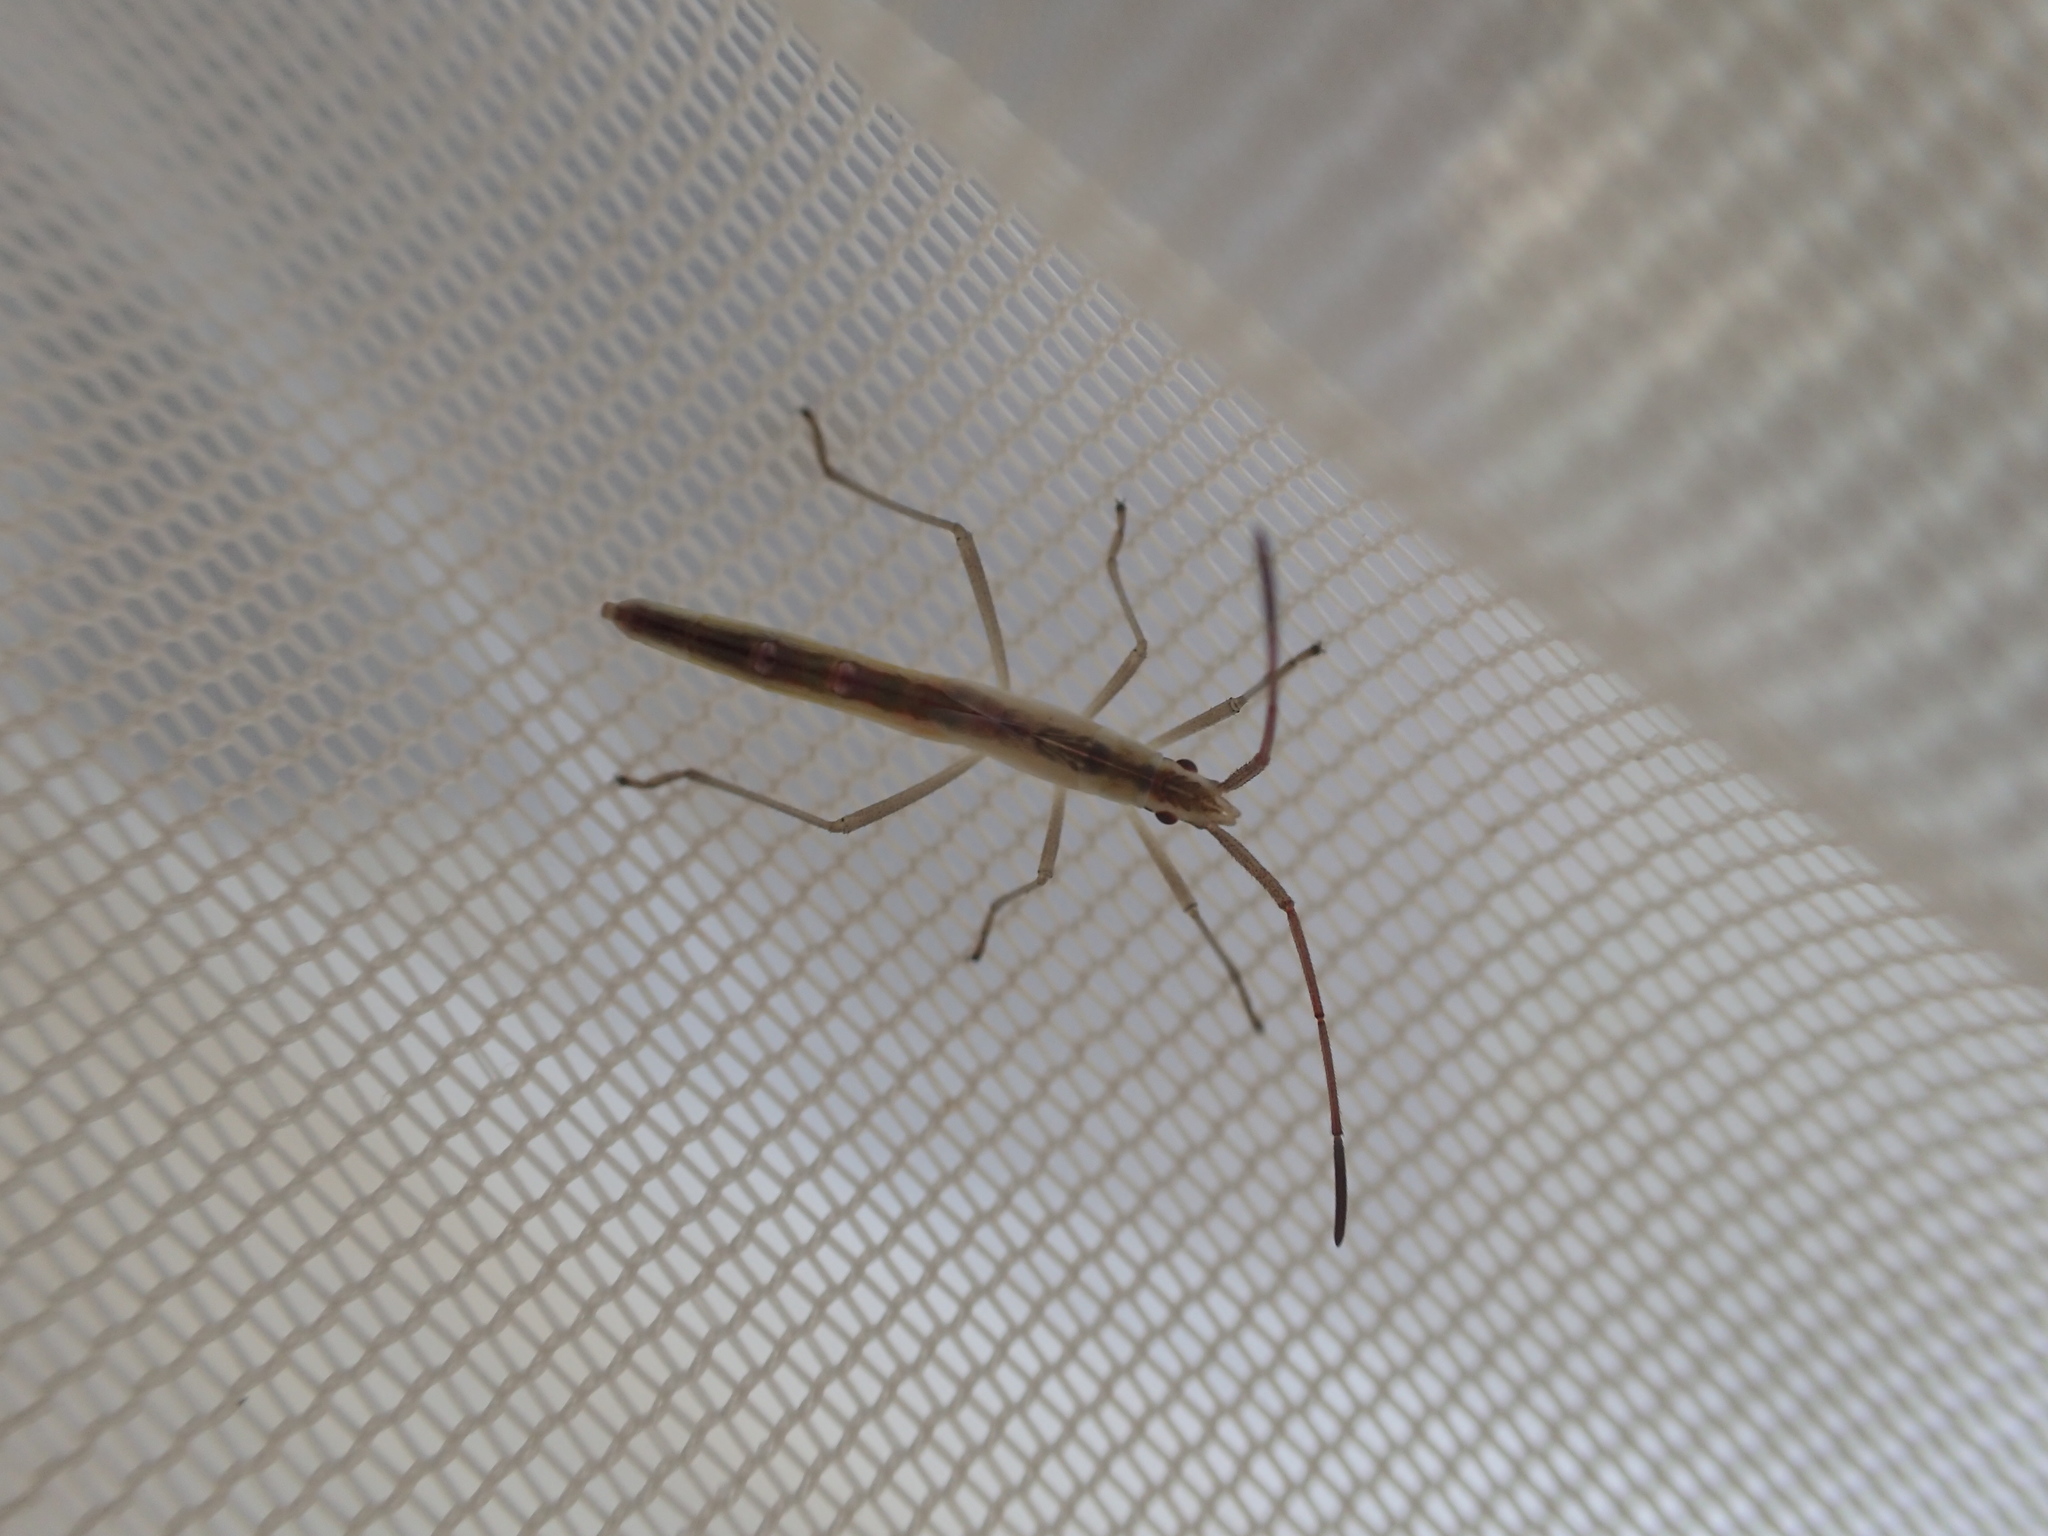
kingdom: Animalia
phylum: Arthropoda
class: Insecta
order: Hemiptera
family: Alydidae
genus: Mutusca
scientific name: Mutusca brevicornis
